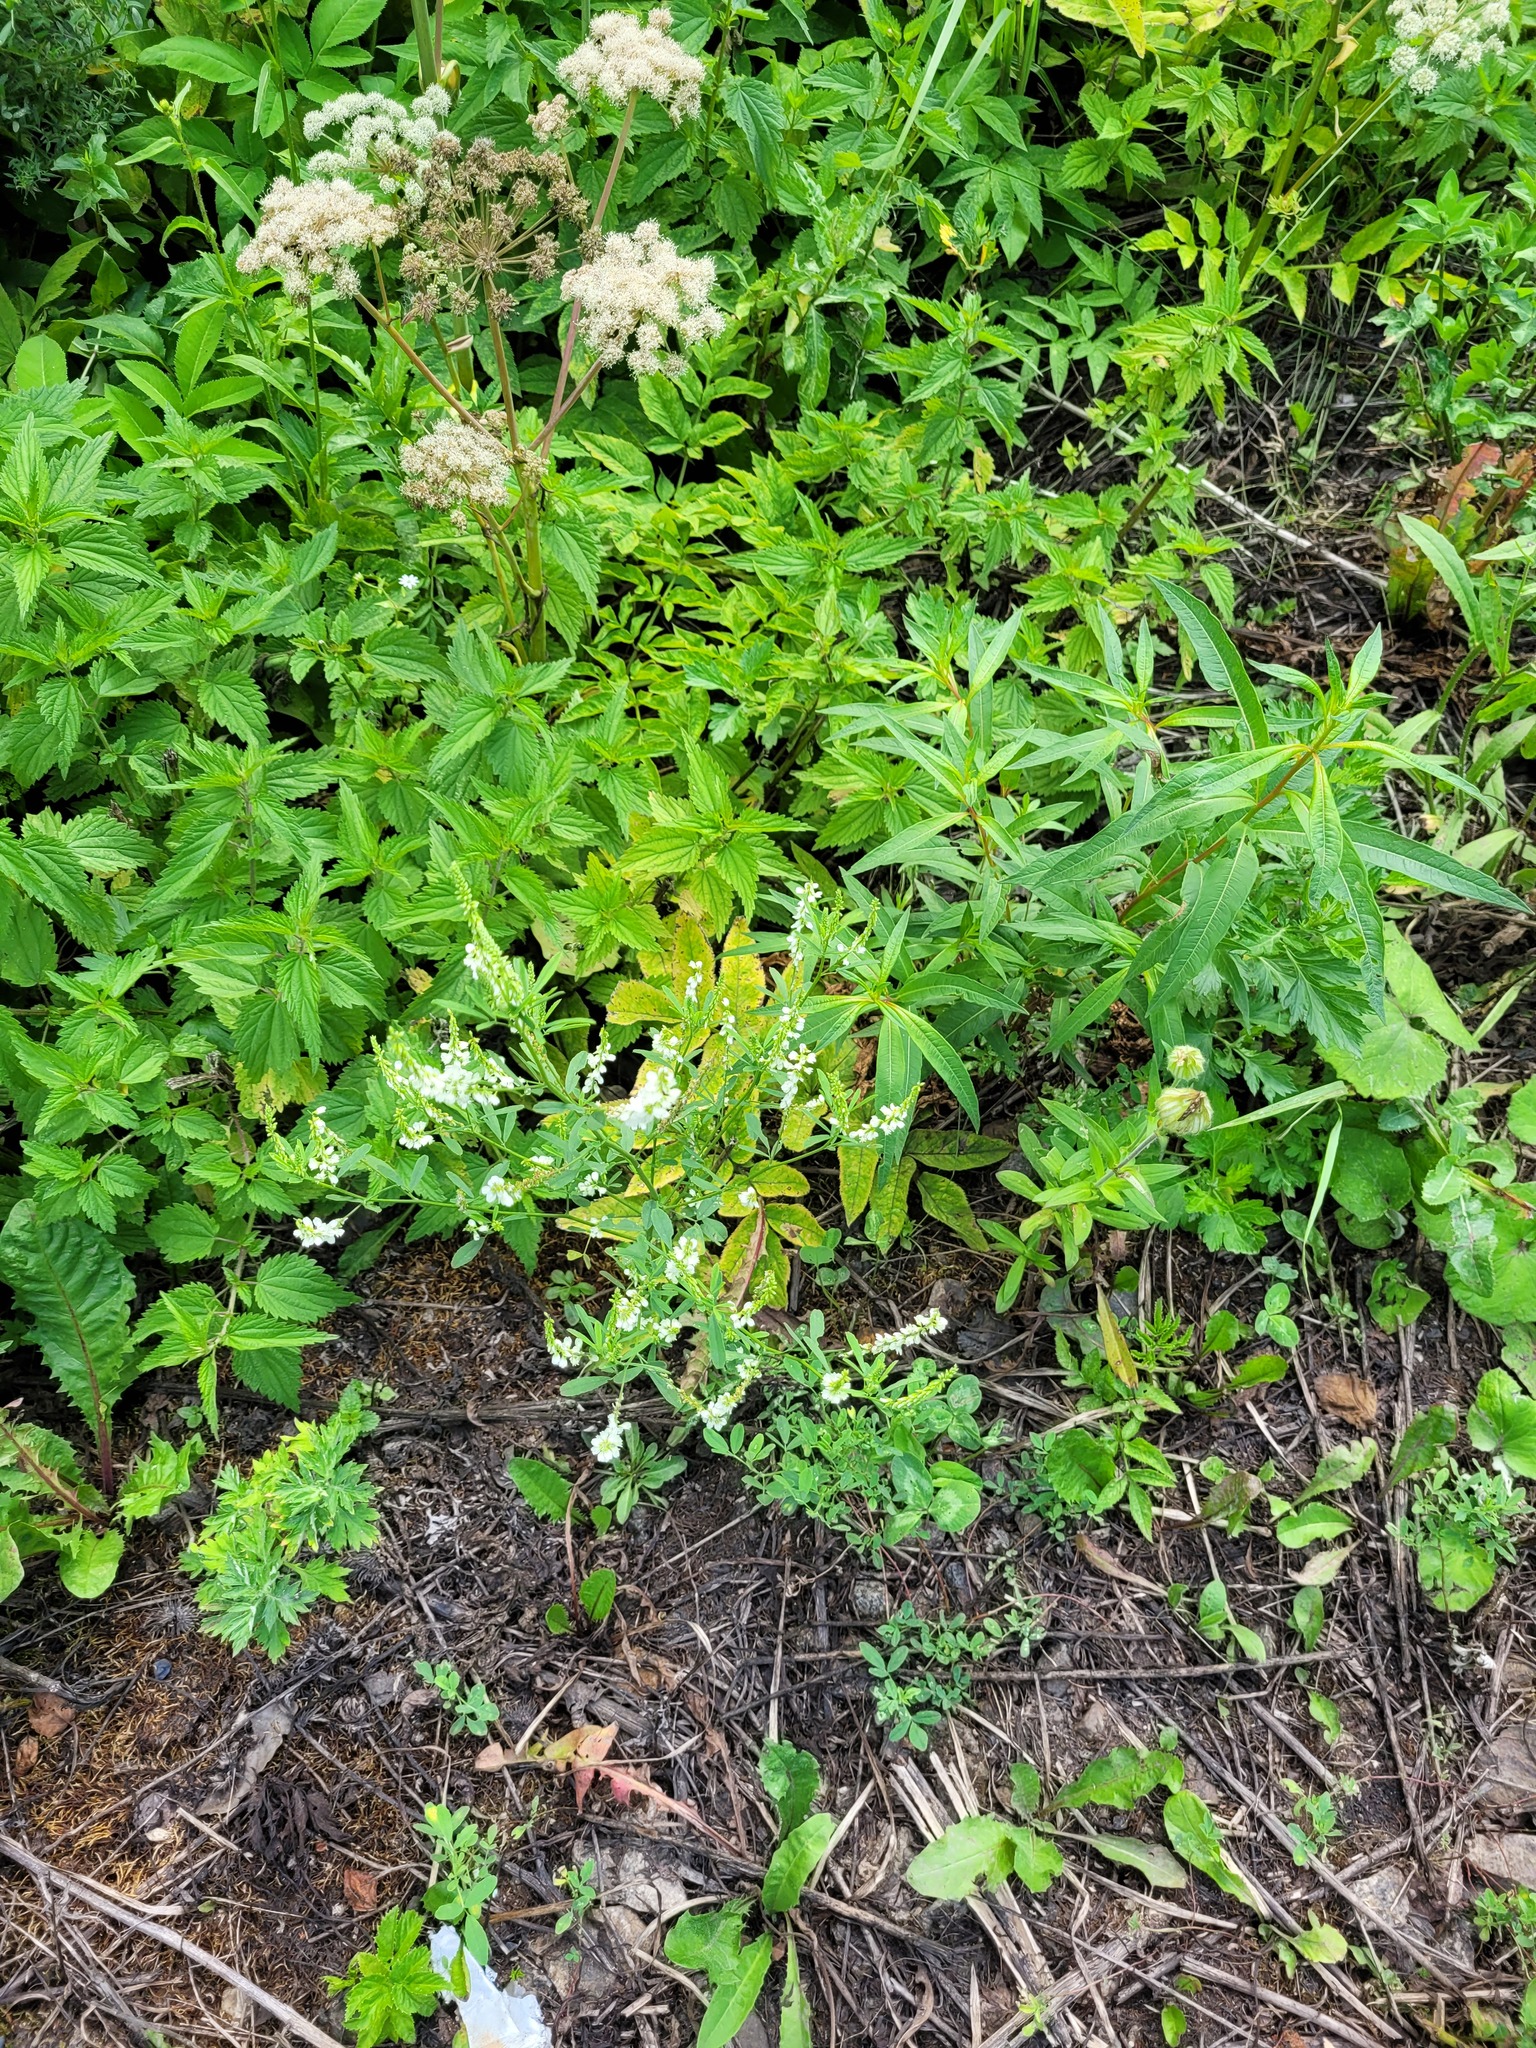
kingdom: Plantae
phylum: Tracheophyta
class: Magnoliopsida
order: Fabales
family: Fabaceae
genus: Melilotus
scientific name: Melilotus albus
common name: White melilot
